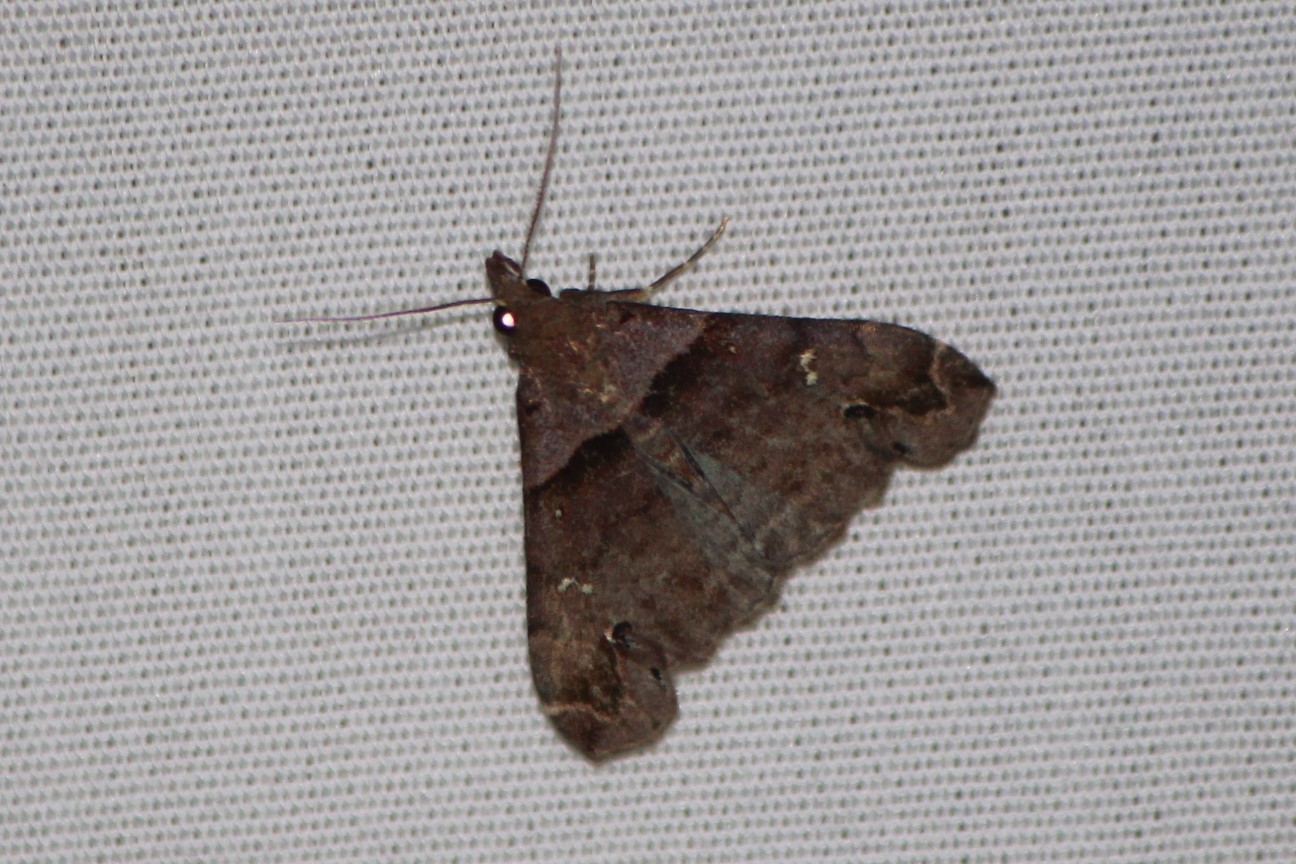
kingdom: Animalia
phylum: Arthropoda
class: Insecta
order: Lepidoptera
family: Erebidae
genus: Lascoria
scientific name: Lascoria ambigualis
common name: Ambiguous moth
